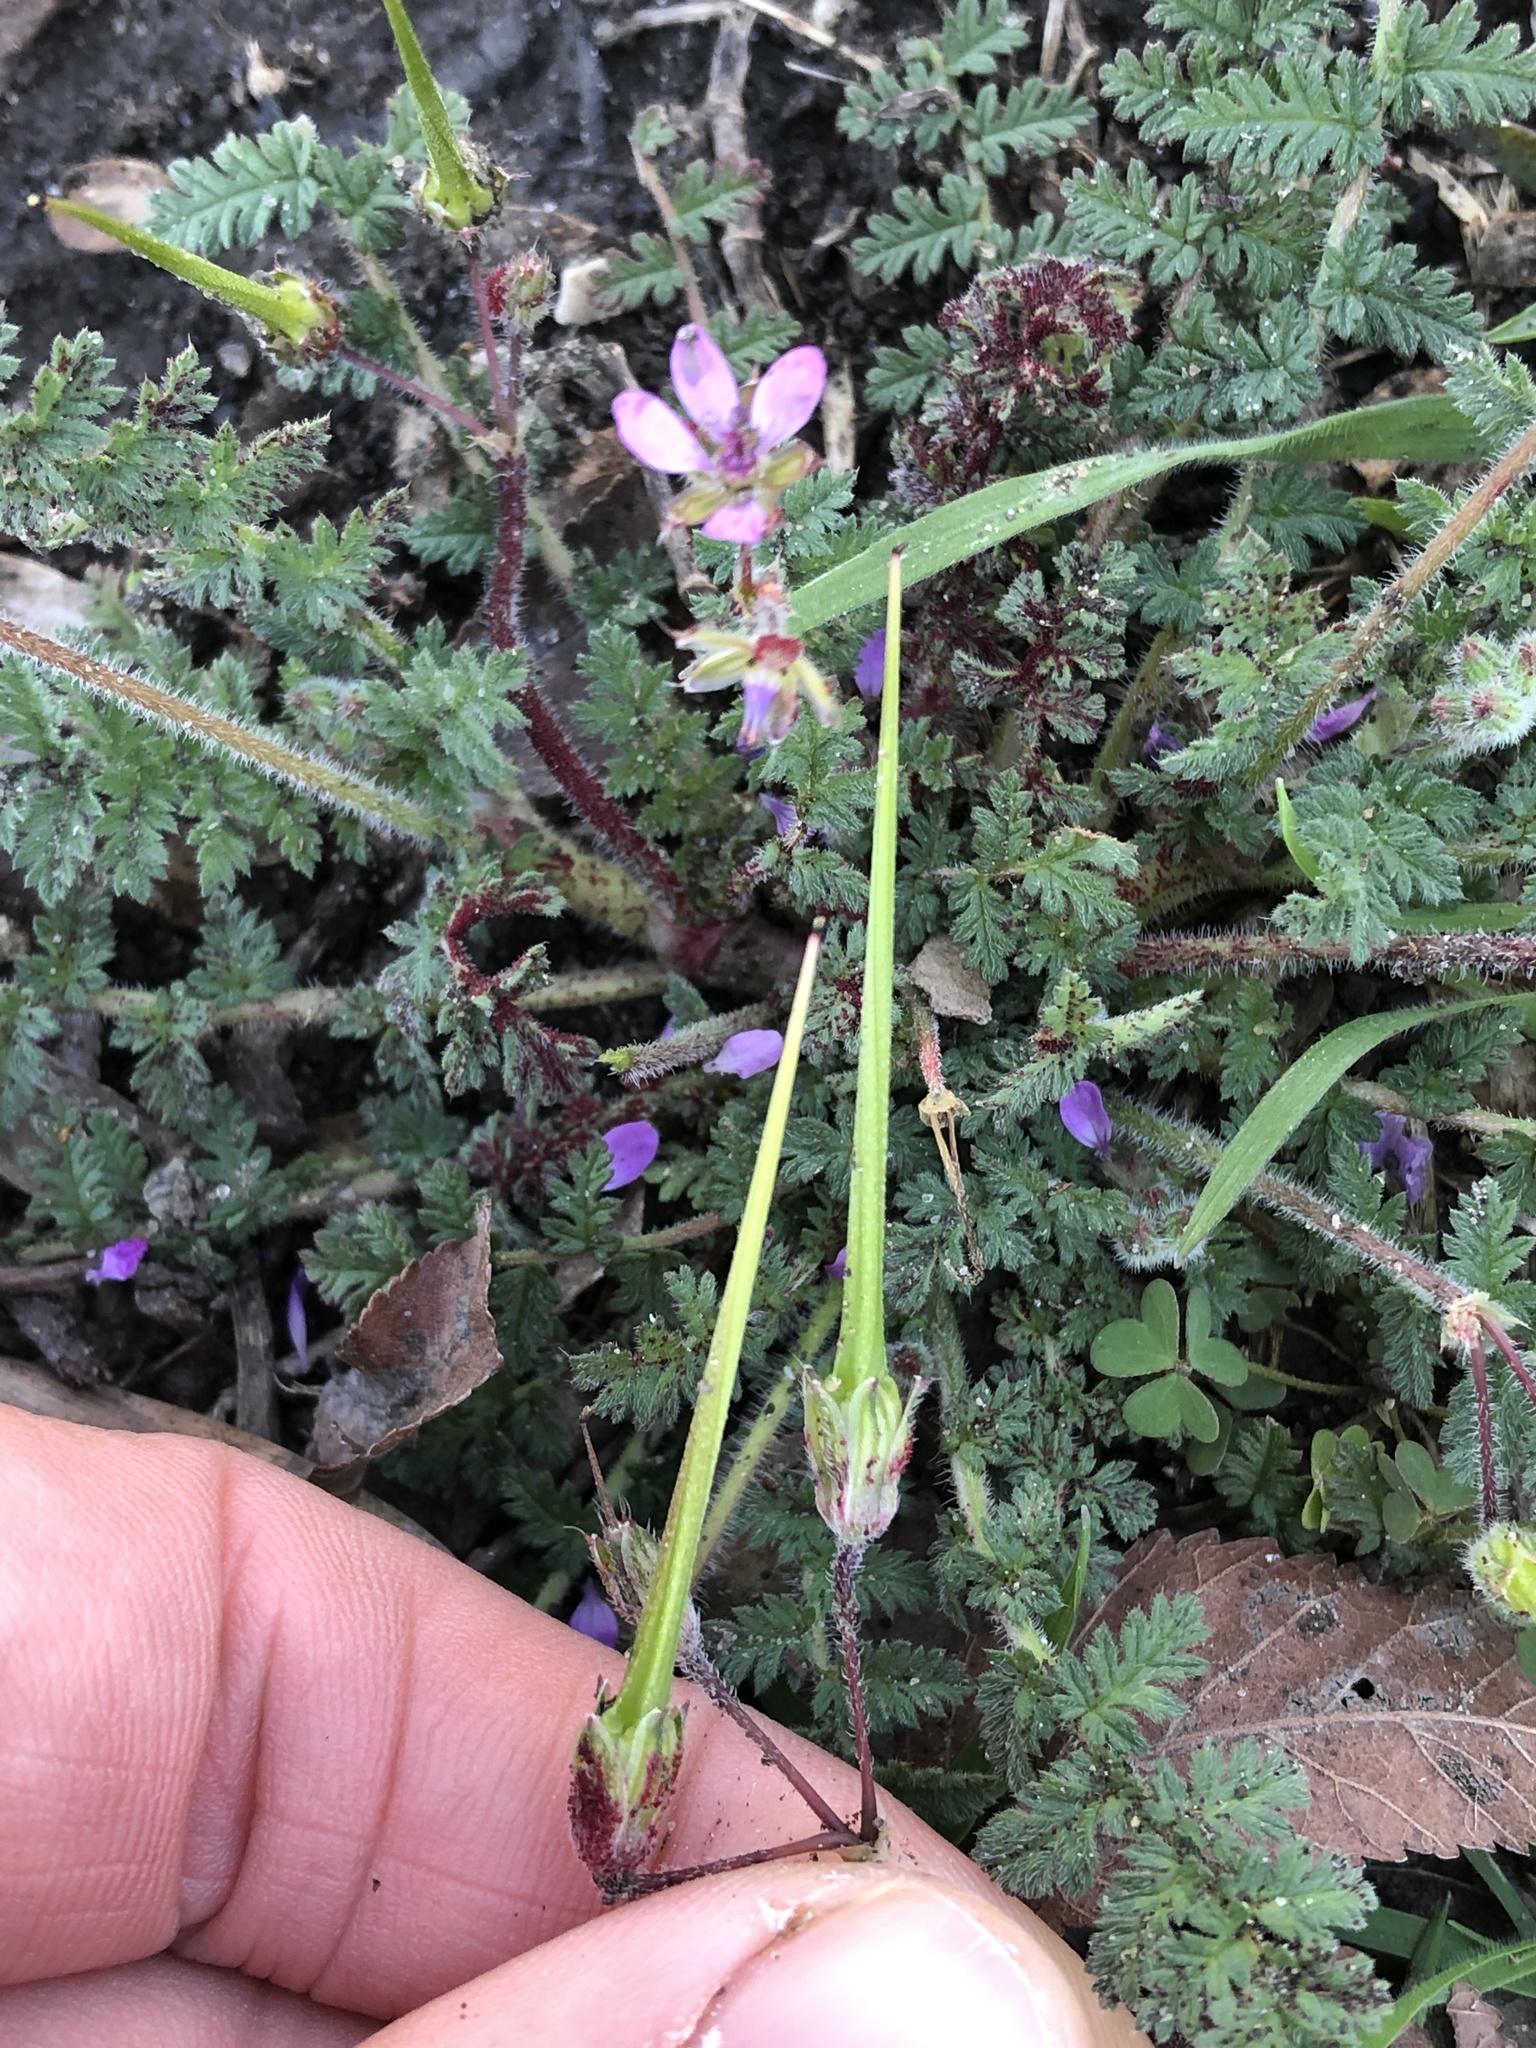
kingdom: Plantae
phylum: Tracheophyta
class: Magnoliopsida
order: Geraniales
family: Geraniaceae
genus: Erodium
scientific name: Erodium cicutarium
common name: Common stork's-bill
